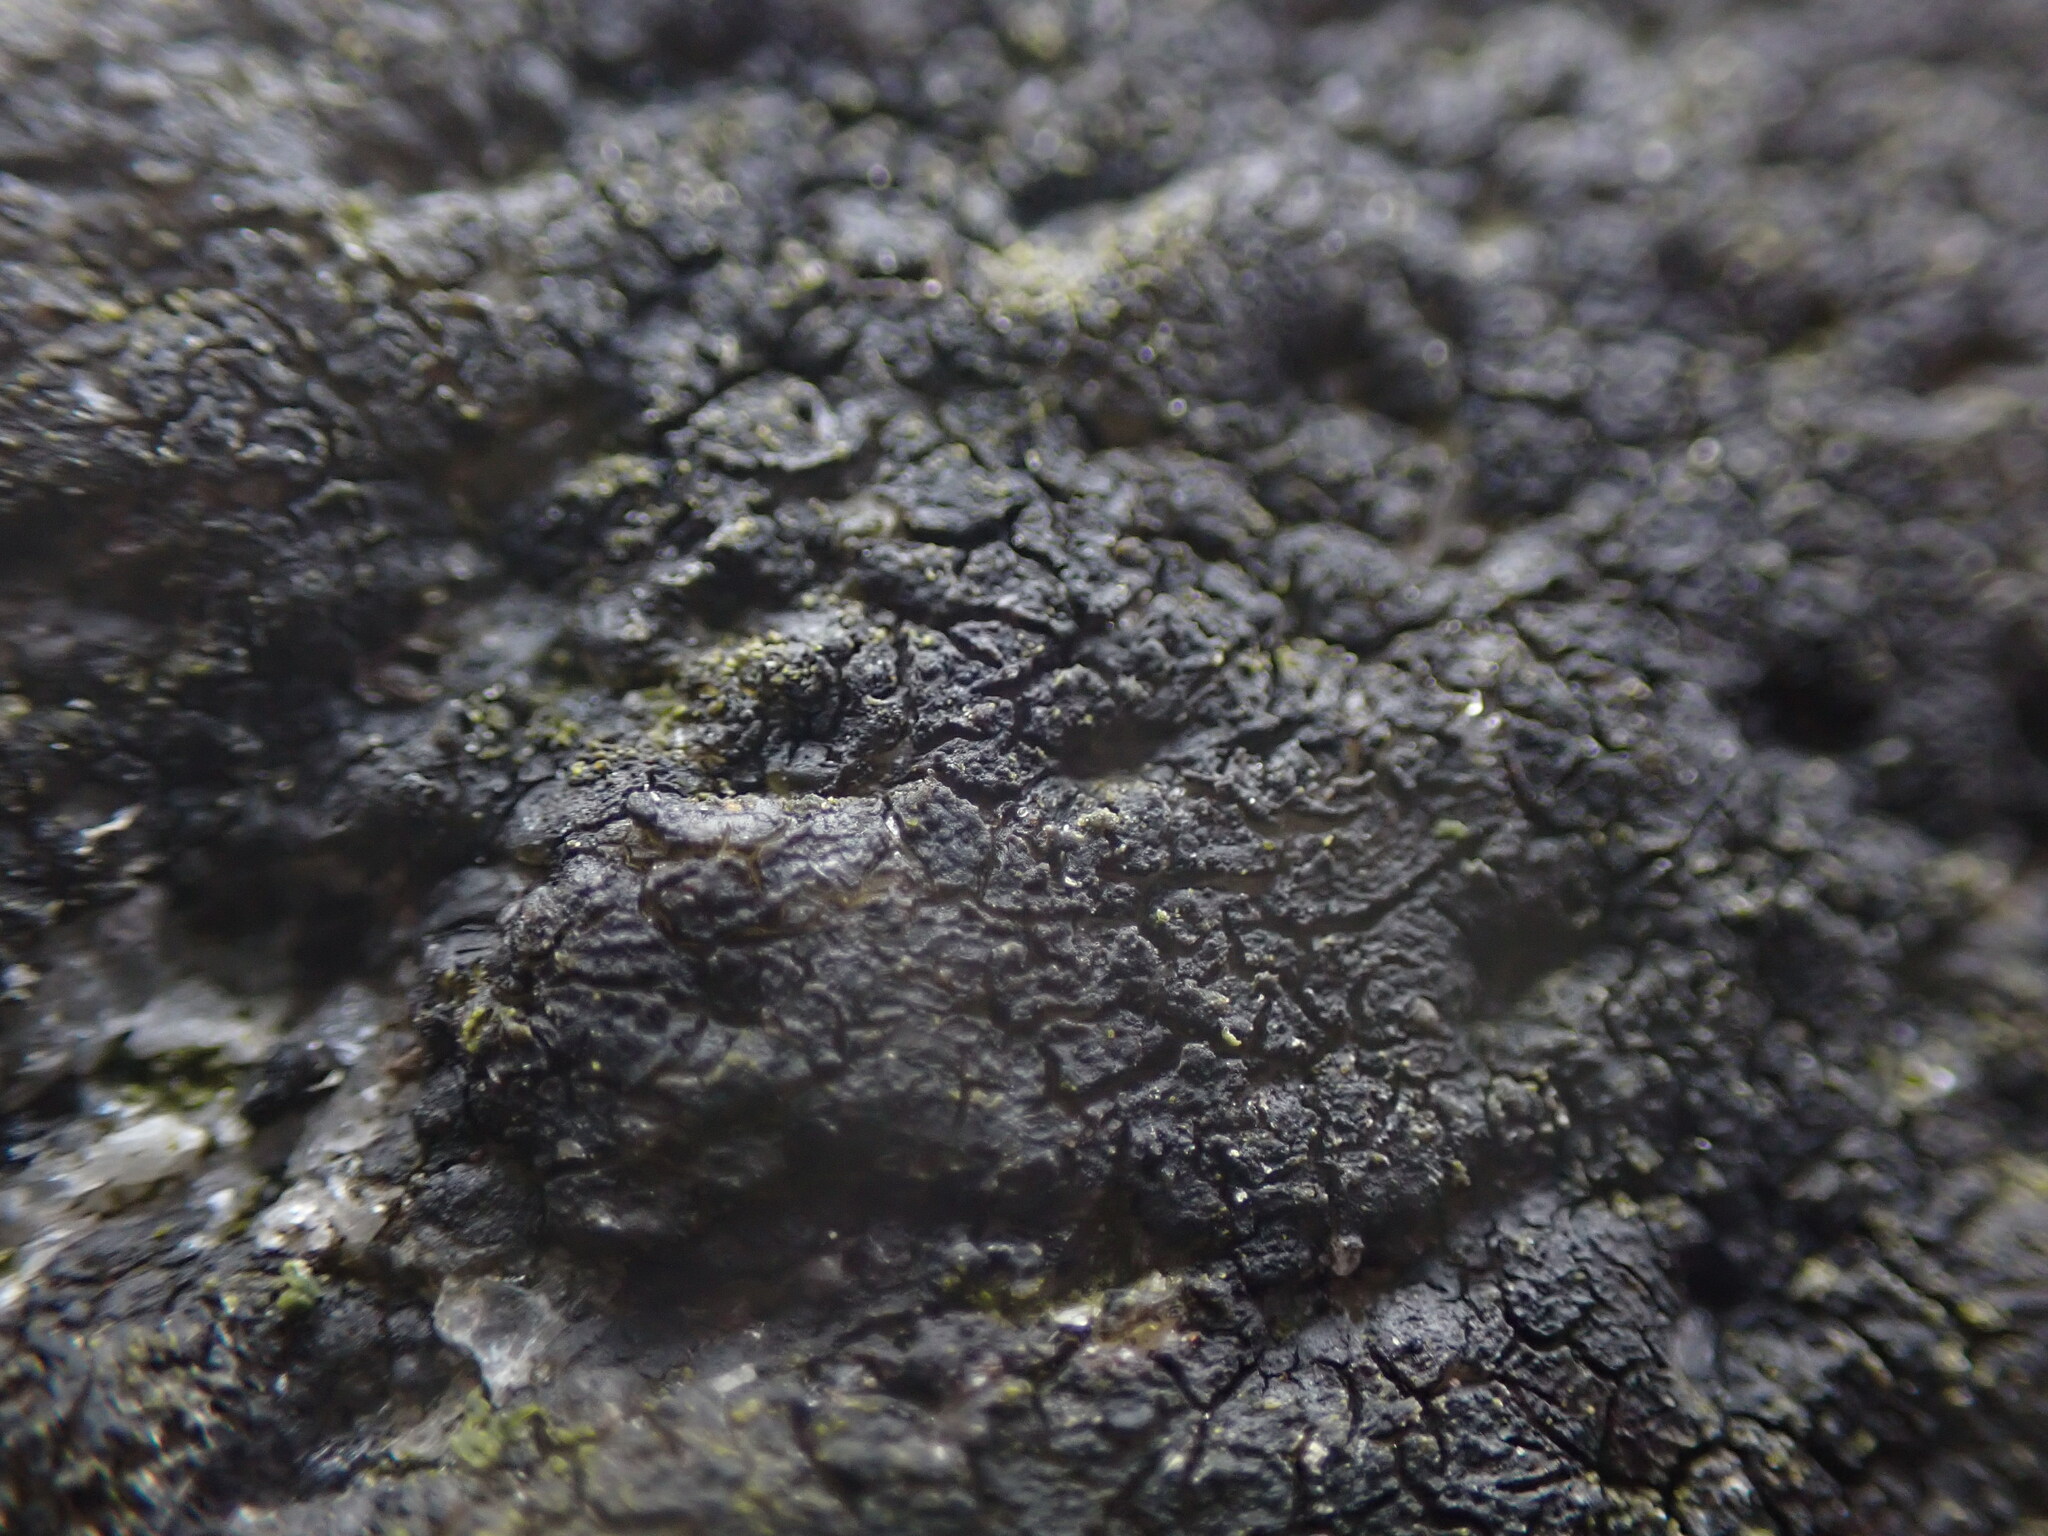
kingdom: Fungi
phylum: Ascomycota
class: Eurotiomycetes
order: Verrucariales
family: Verrucariaceae
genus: Hydropunctaria
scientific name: Hydropunctaria maura
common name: Tar lichen
